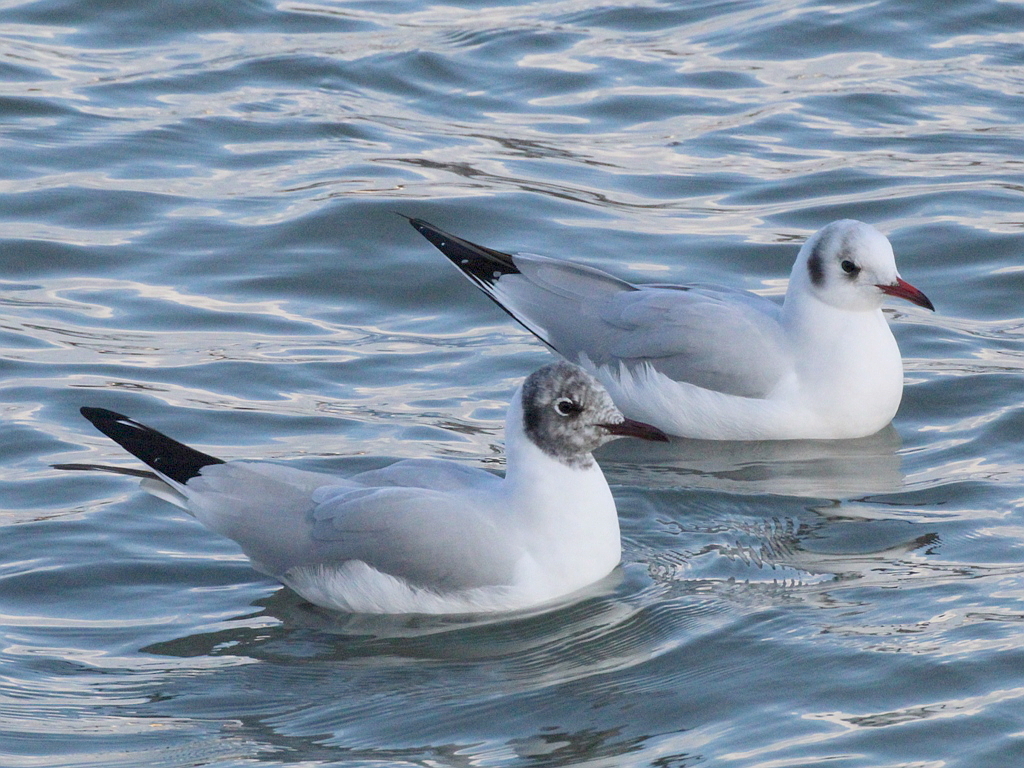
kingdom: Animalia
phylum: Chordata
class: Aves
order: Charadriiformes
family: Laridae
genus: Chroicocephalus
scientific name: Chroicocephalus ridibundus
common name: Black-headed gull
